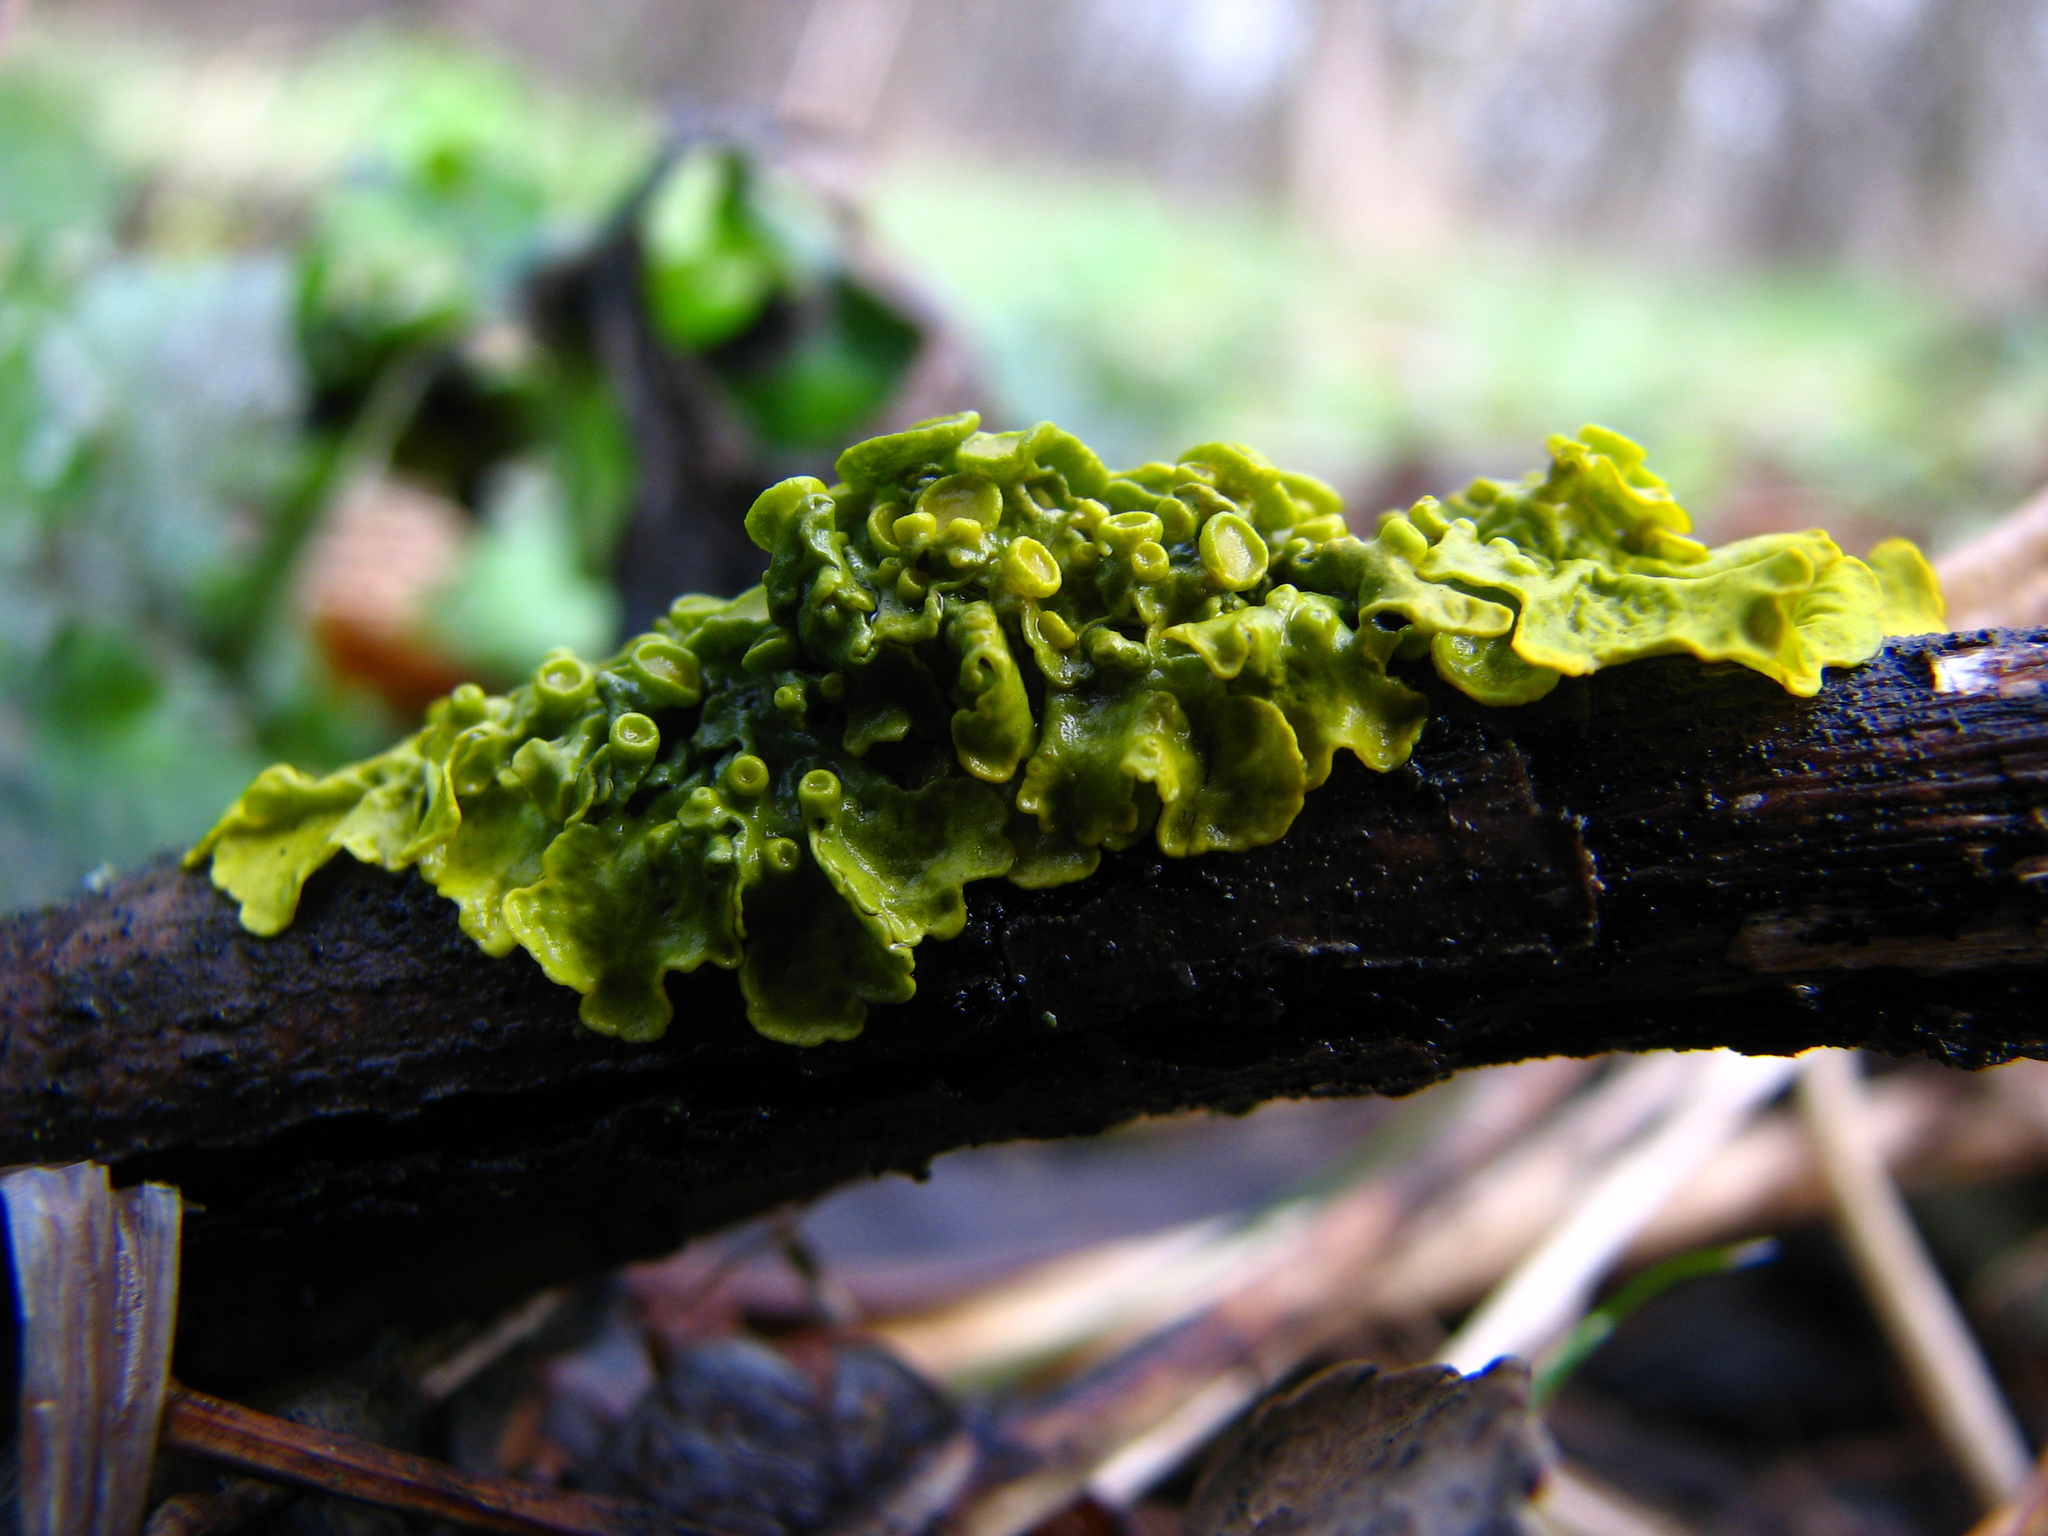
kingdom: Fungi
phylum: Ascomycota
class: Lecanoromycetes
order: Teloschistales
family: Teloschistaceae
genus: Xanthoria
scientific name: Xanthoria parietina
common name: Common orange lichen
